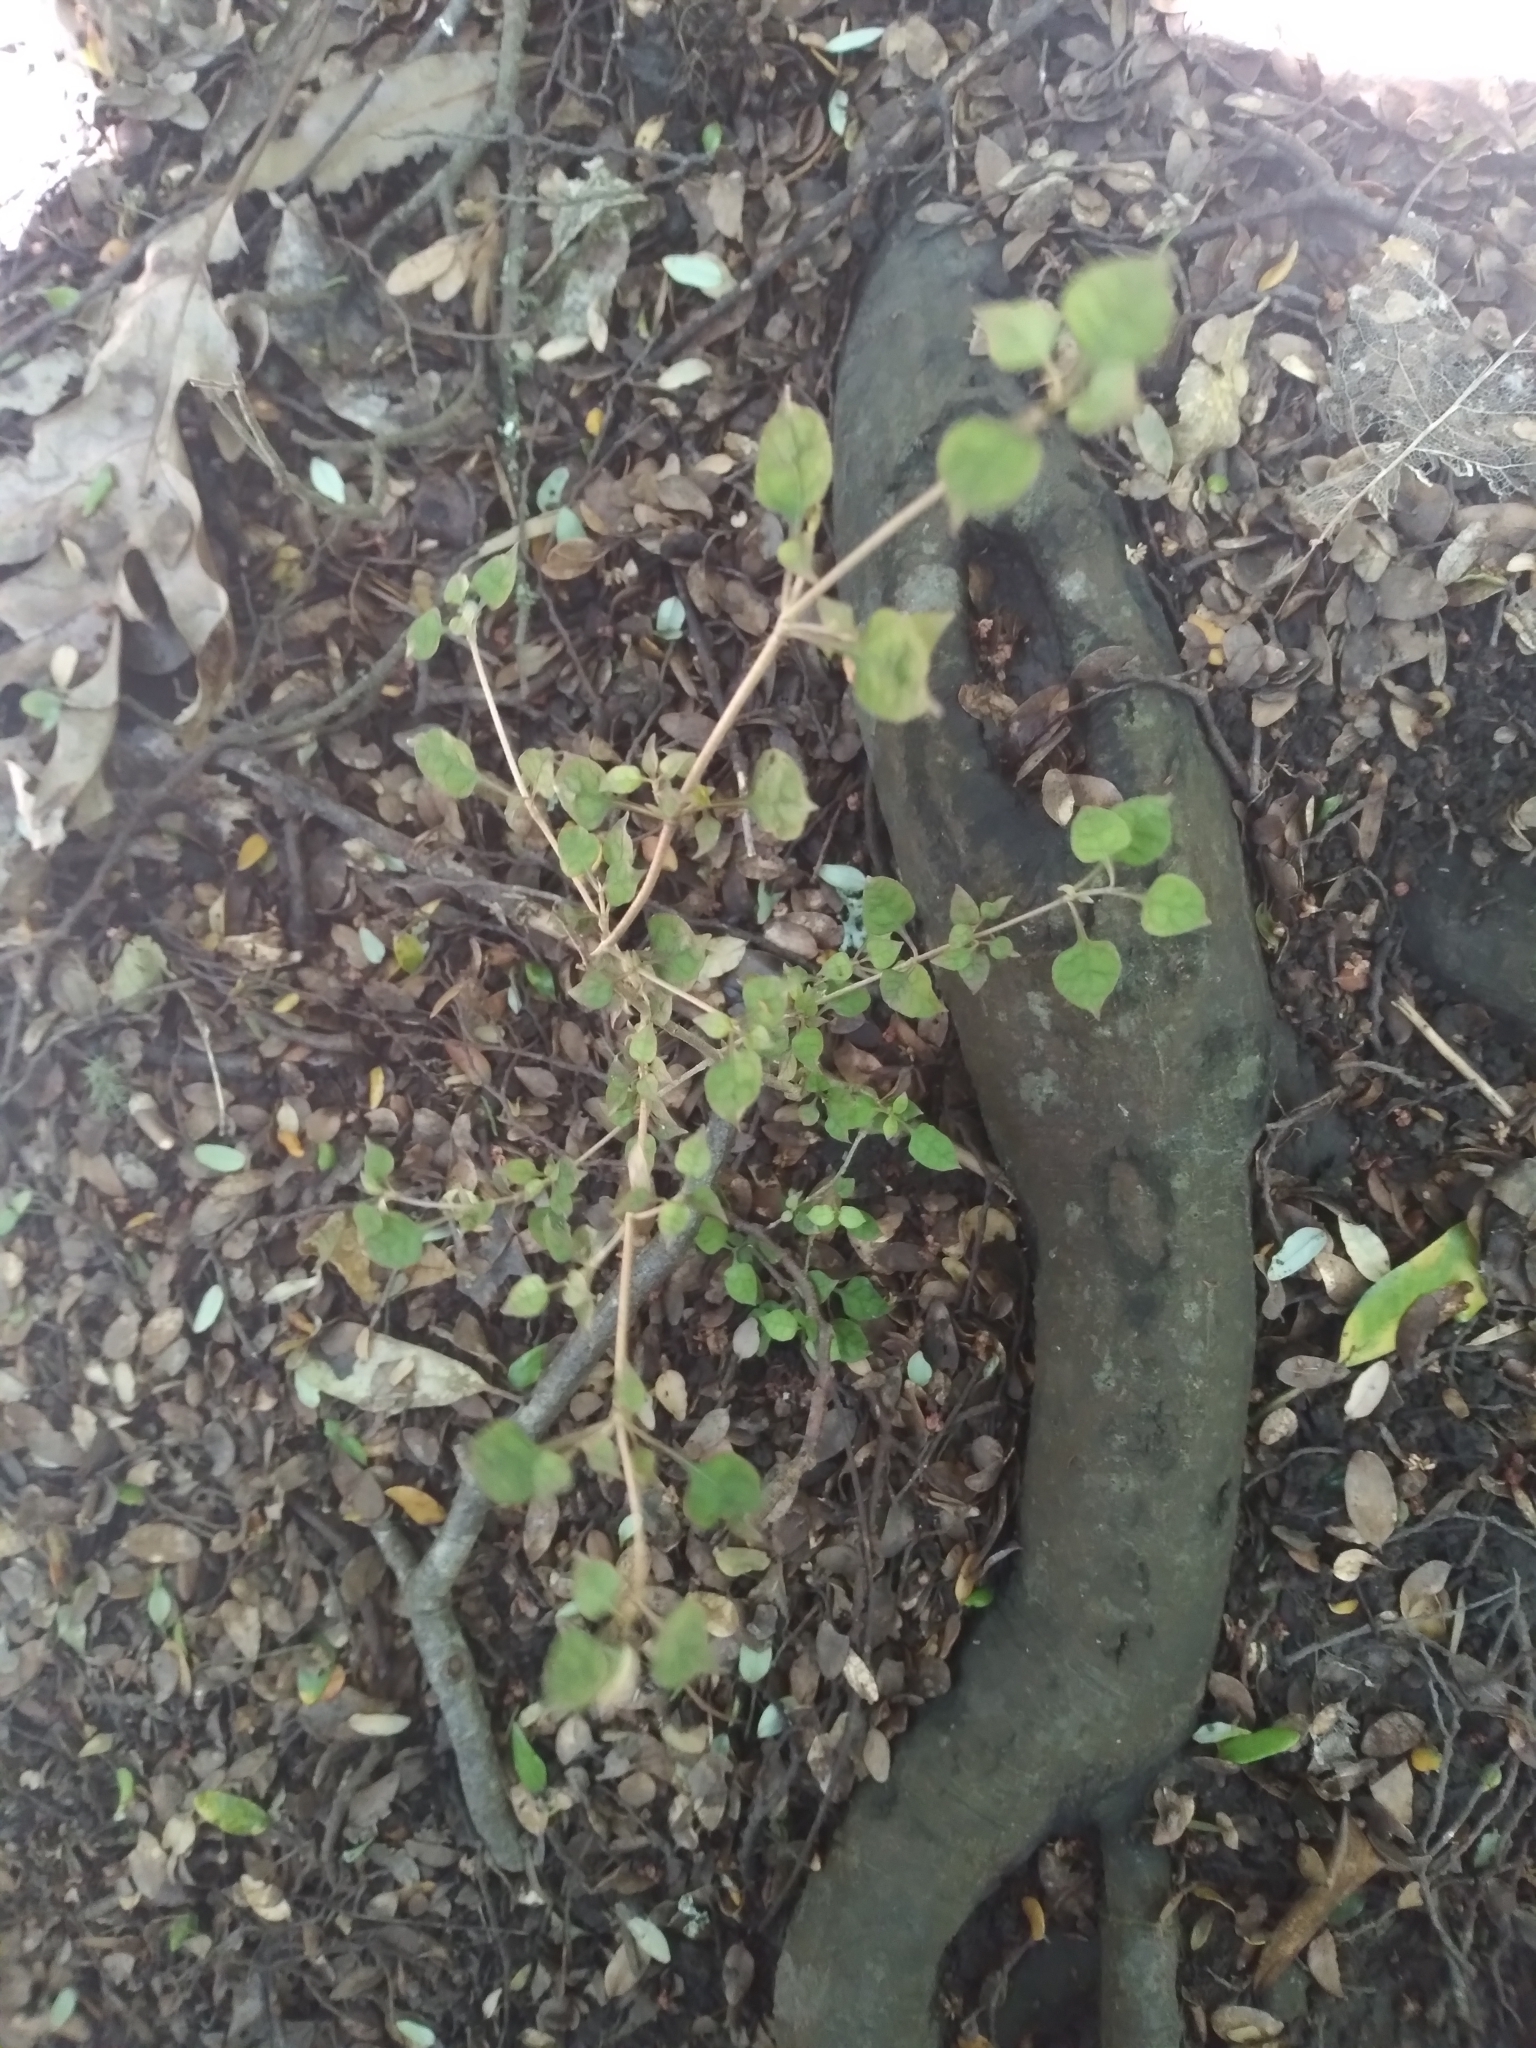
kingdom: Plantae
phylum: Tracheophyta
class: Magnoliopsida
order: Gentianales
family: Rubiaceae
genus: Coprosma
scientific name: Coprosma areolata
